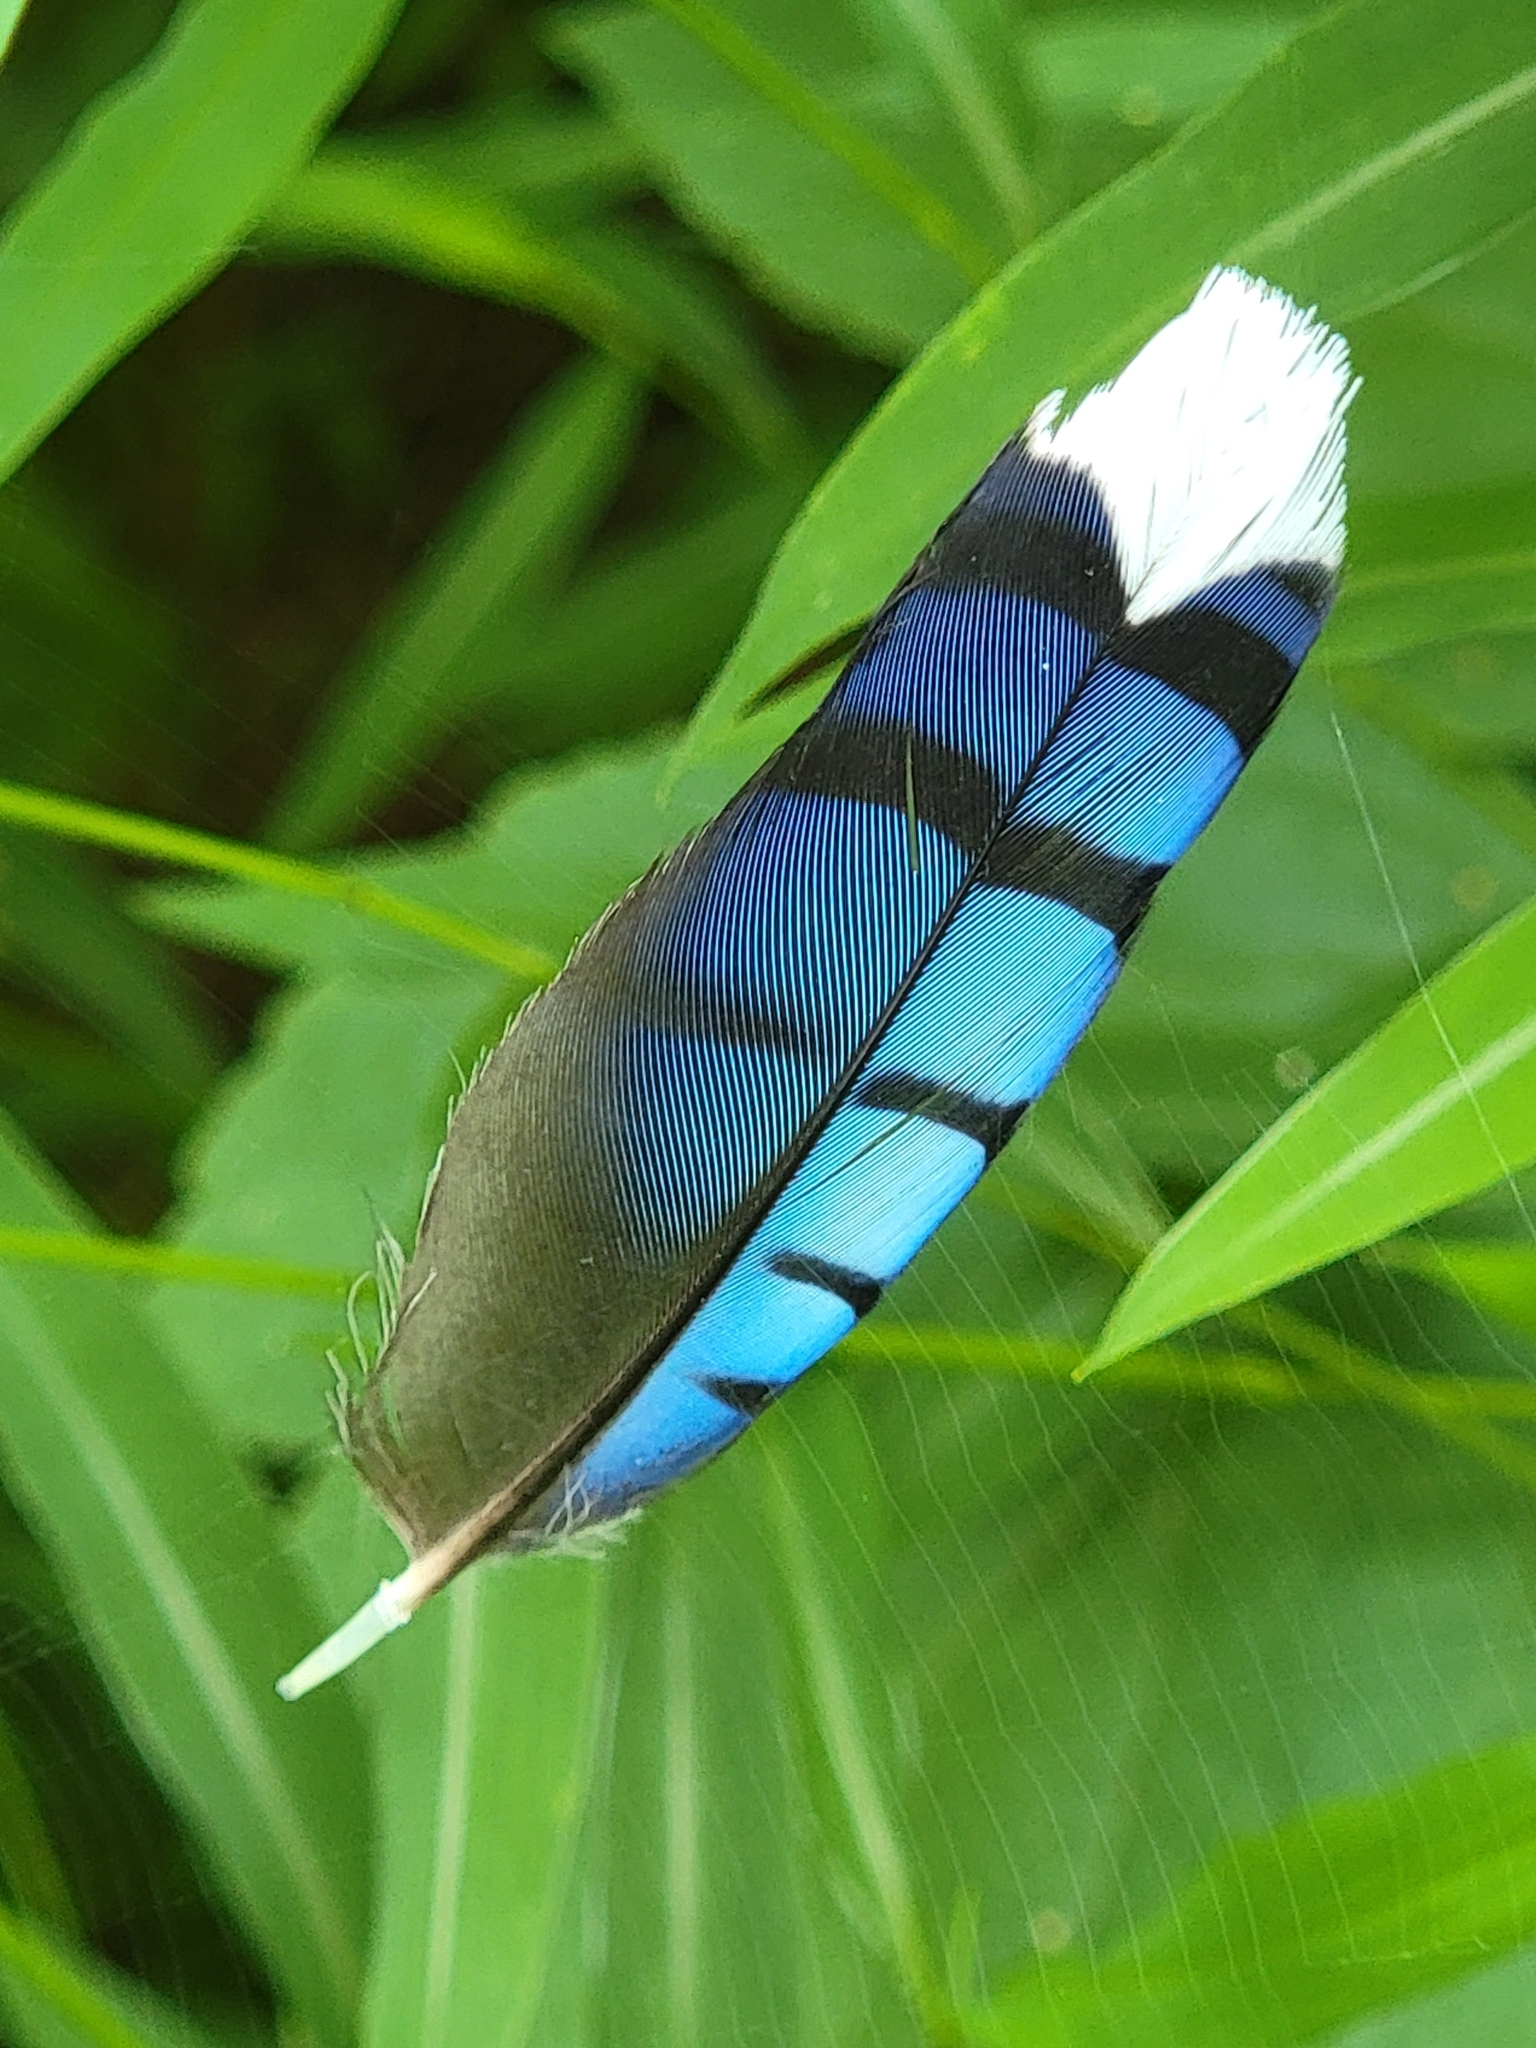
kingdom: Animalia
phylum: Chordata
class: Aves
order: Passeriformes
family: Corvidae
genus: Cyanocitta
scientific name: Cyanocitta cristata
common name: Blue jay
